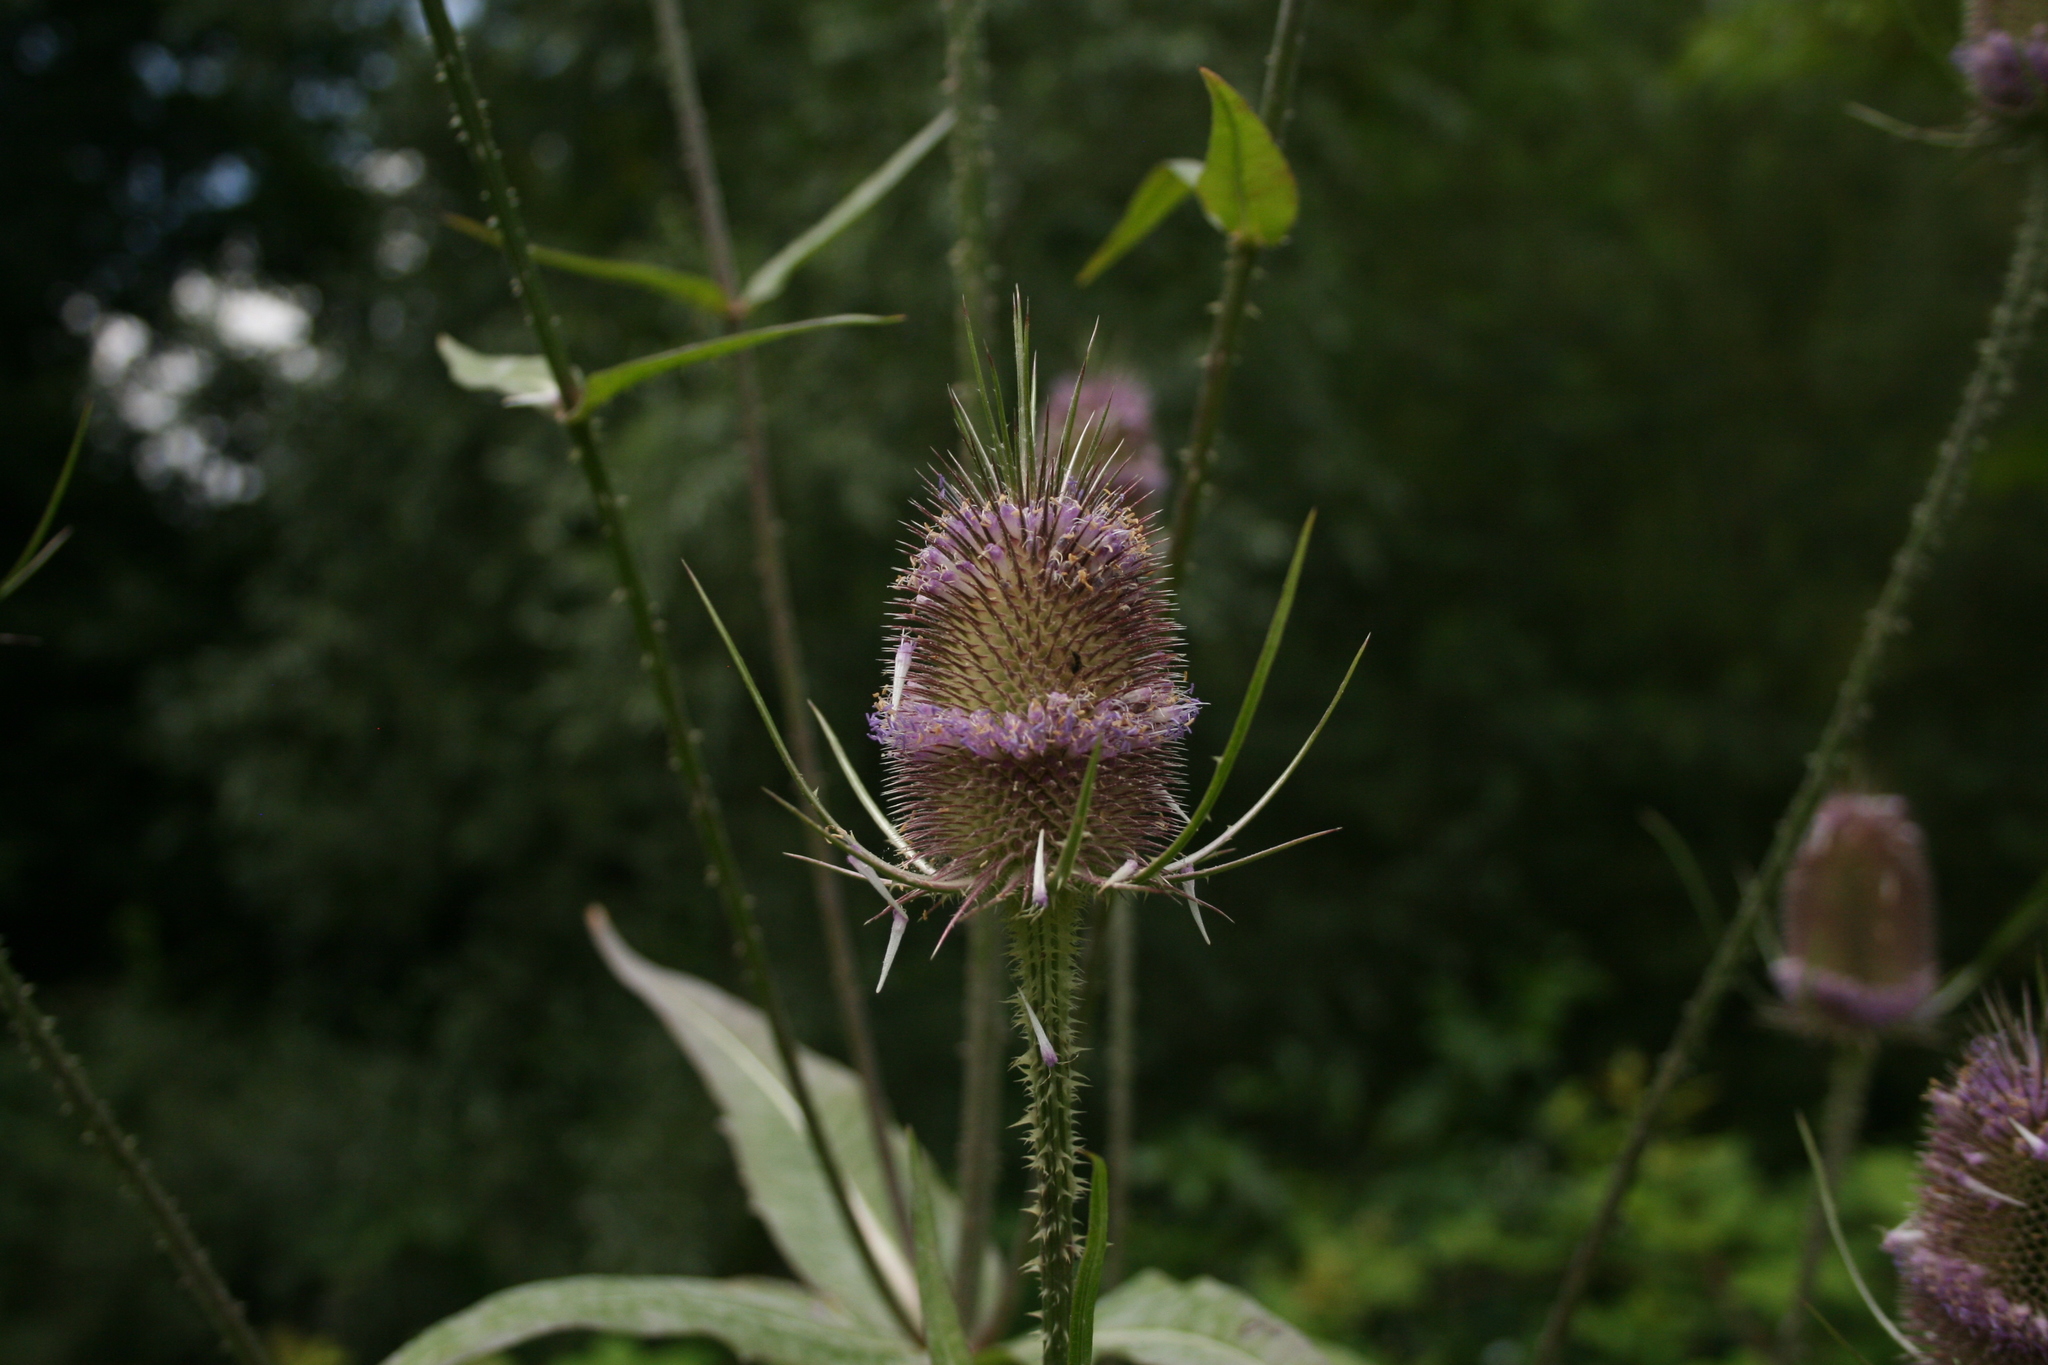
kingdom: Plantae
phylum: Tracheophyta
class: Magnoliopsida
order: Dipsacales
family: Caprifoliaceae
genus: Dipsacus
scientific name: Dipsacus fullonum
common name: Teasel
